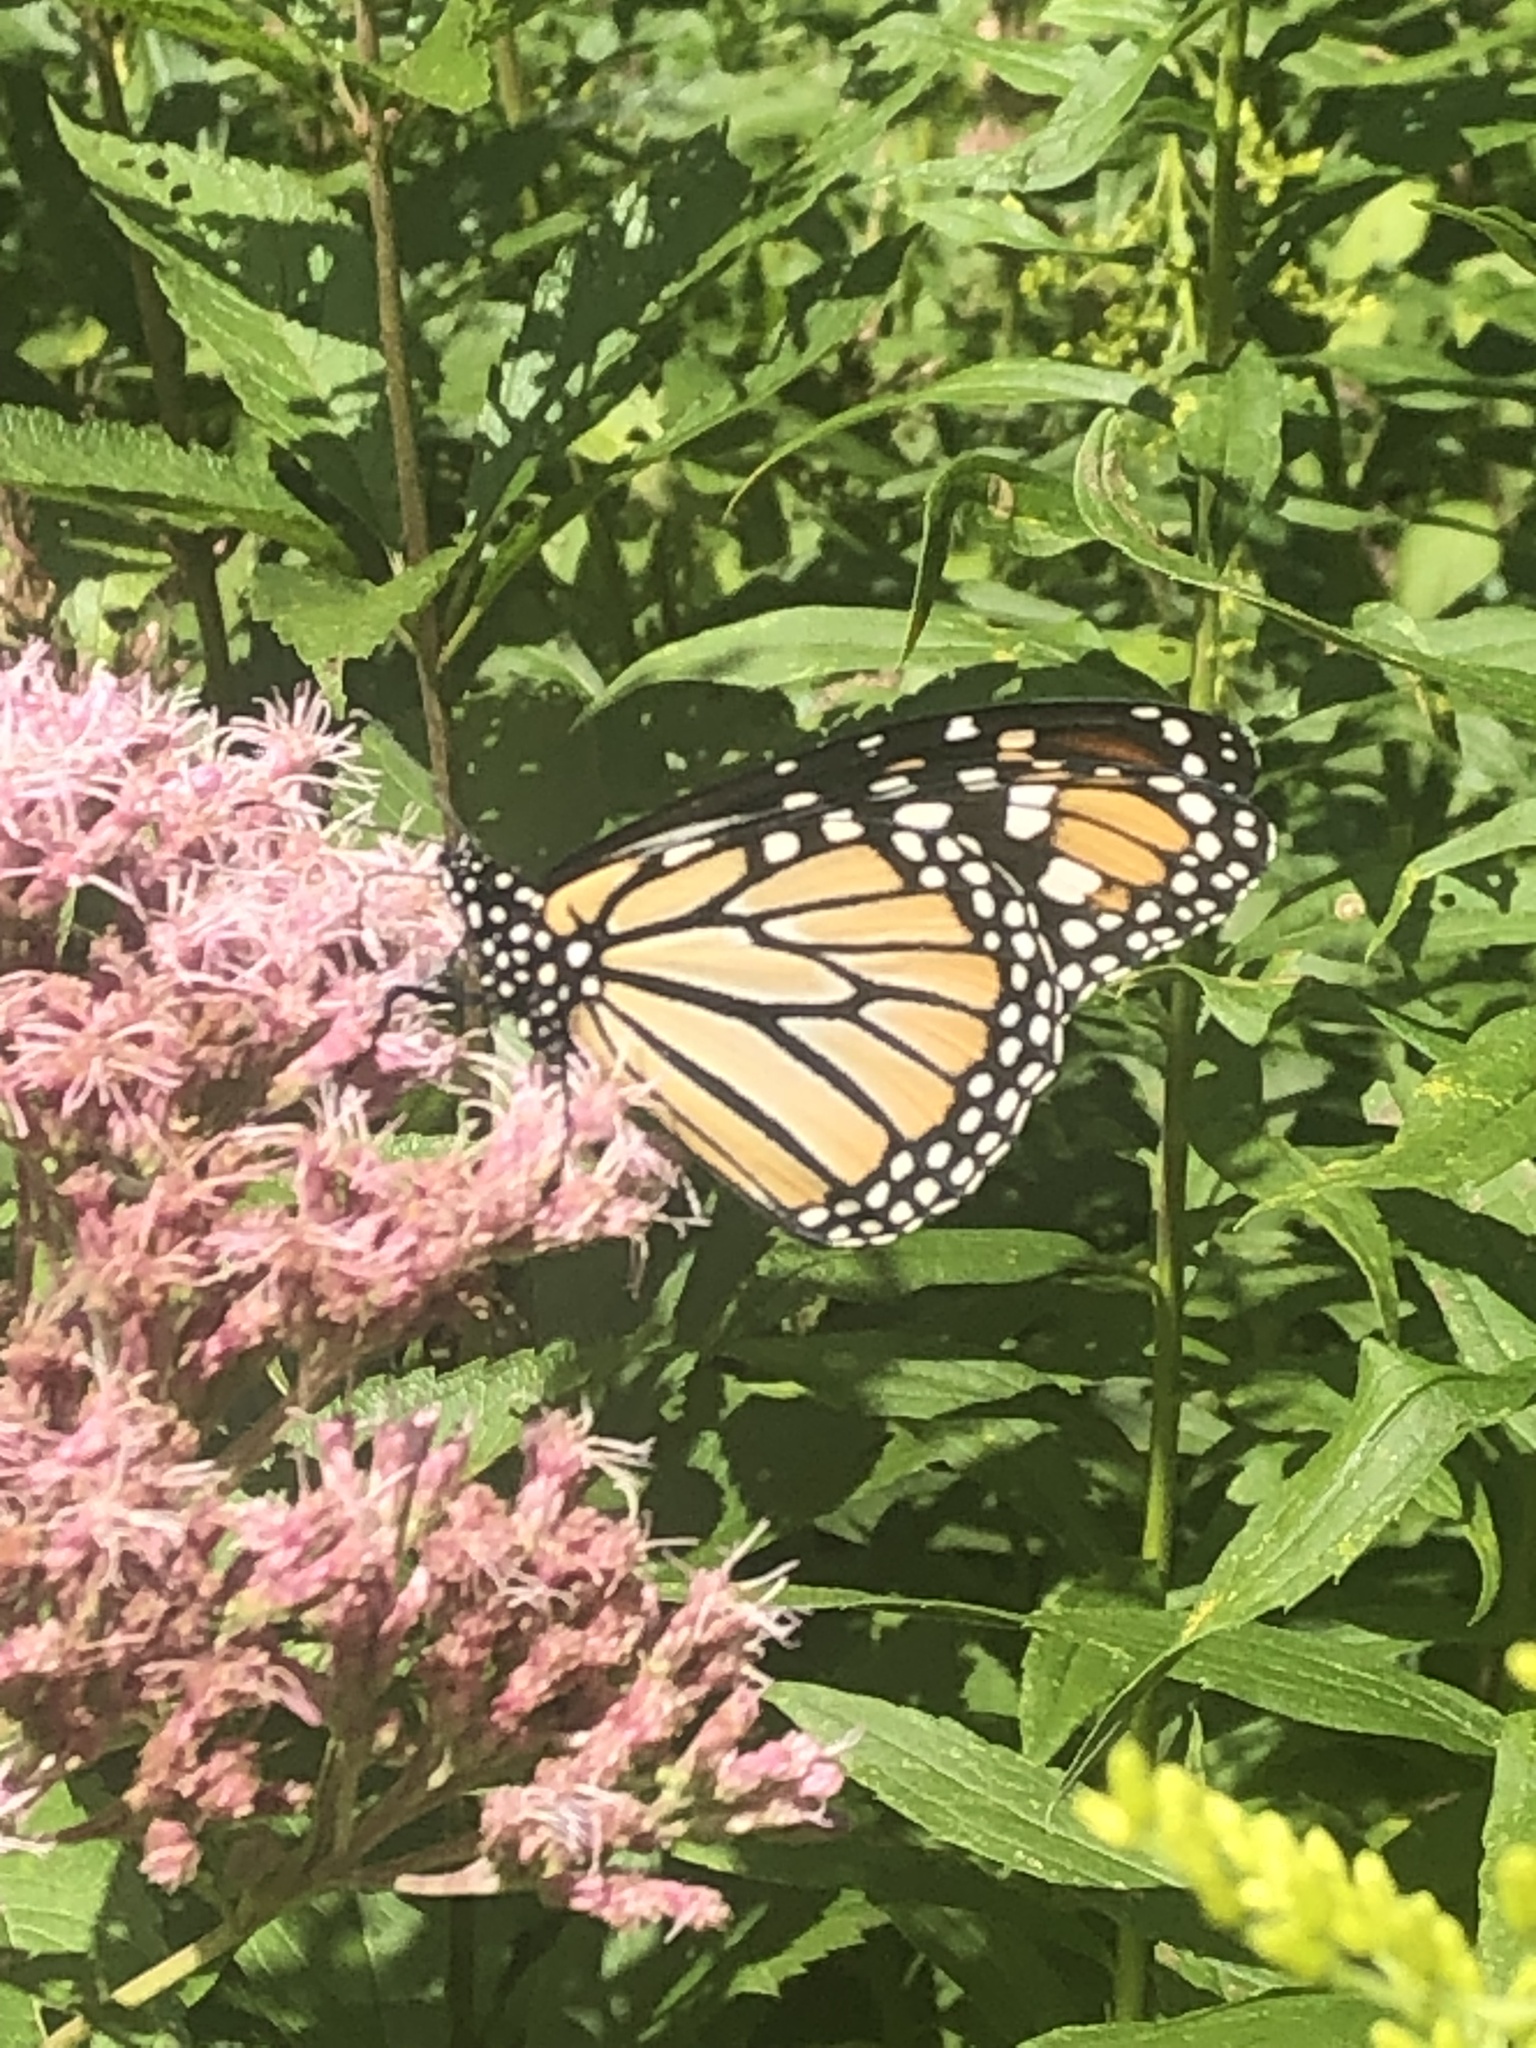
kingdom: Animalia
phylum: Arthropoda
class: Insecta
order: Lepidoptera
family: Nymphalidae
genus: Danaus
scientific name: Danaus plexippus
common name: Monarch
